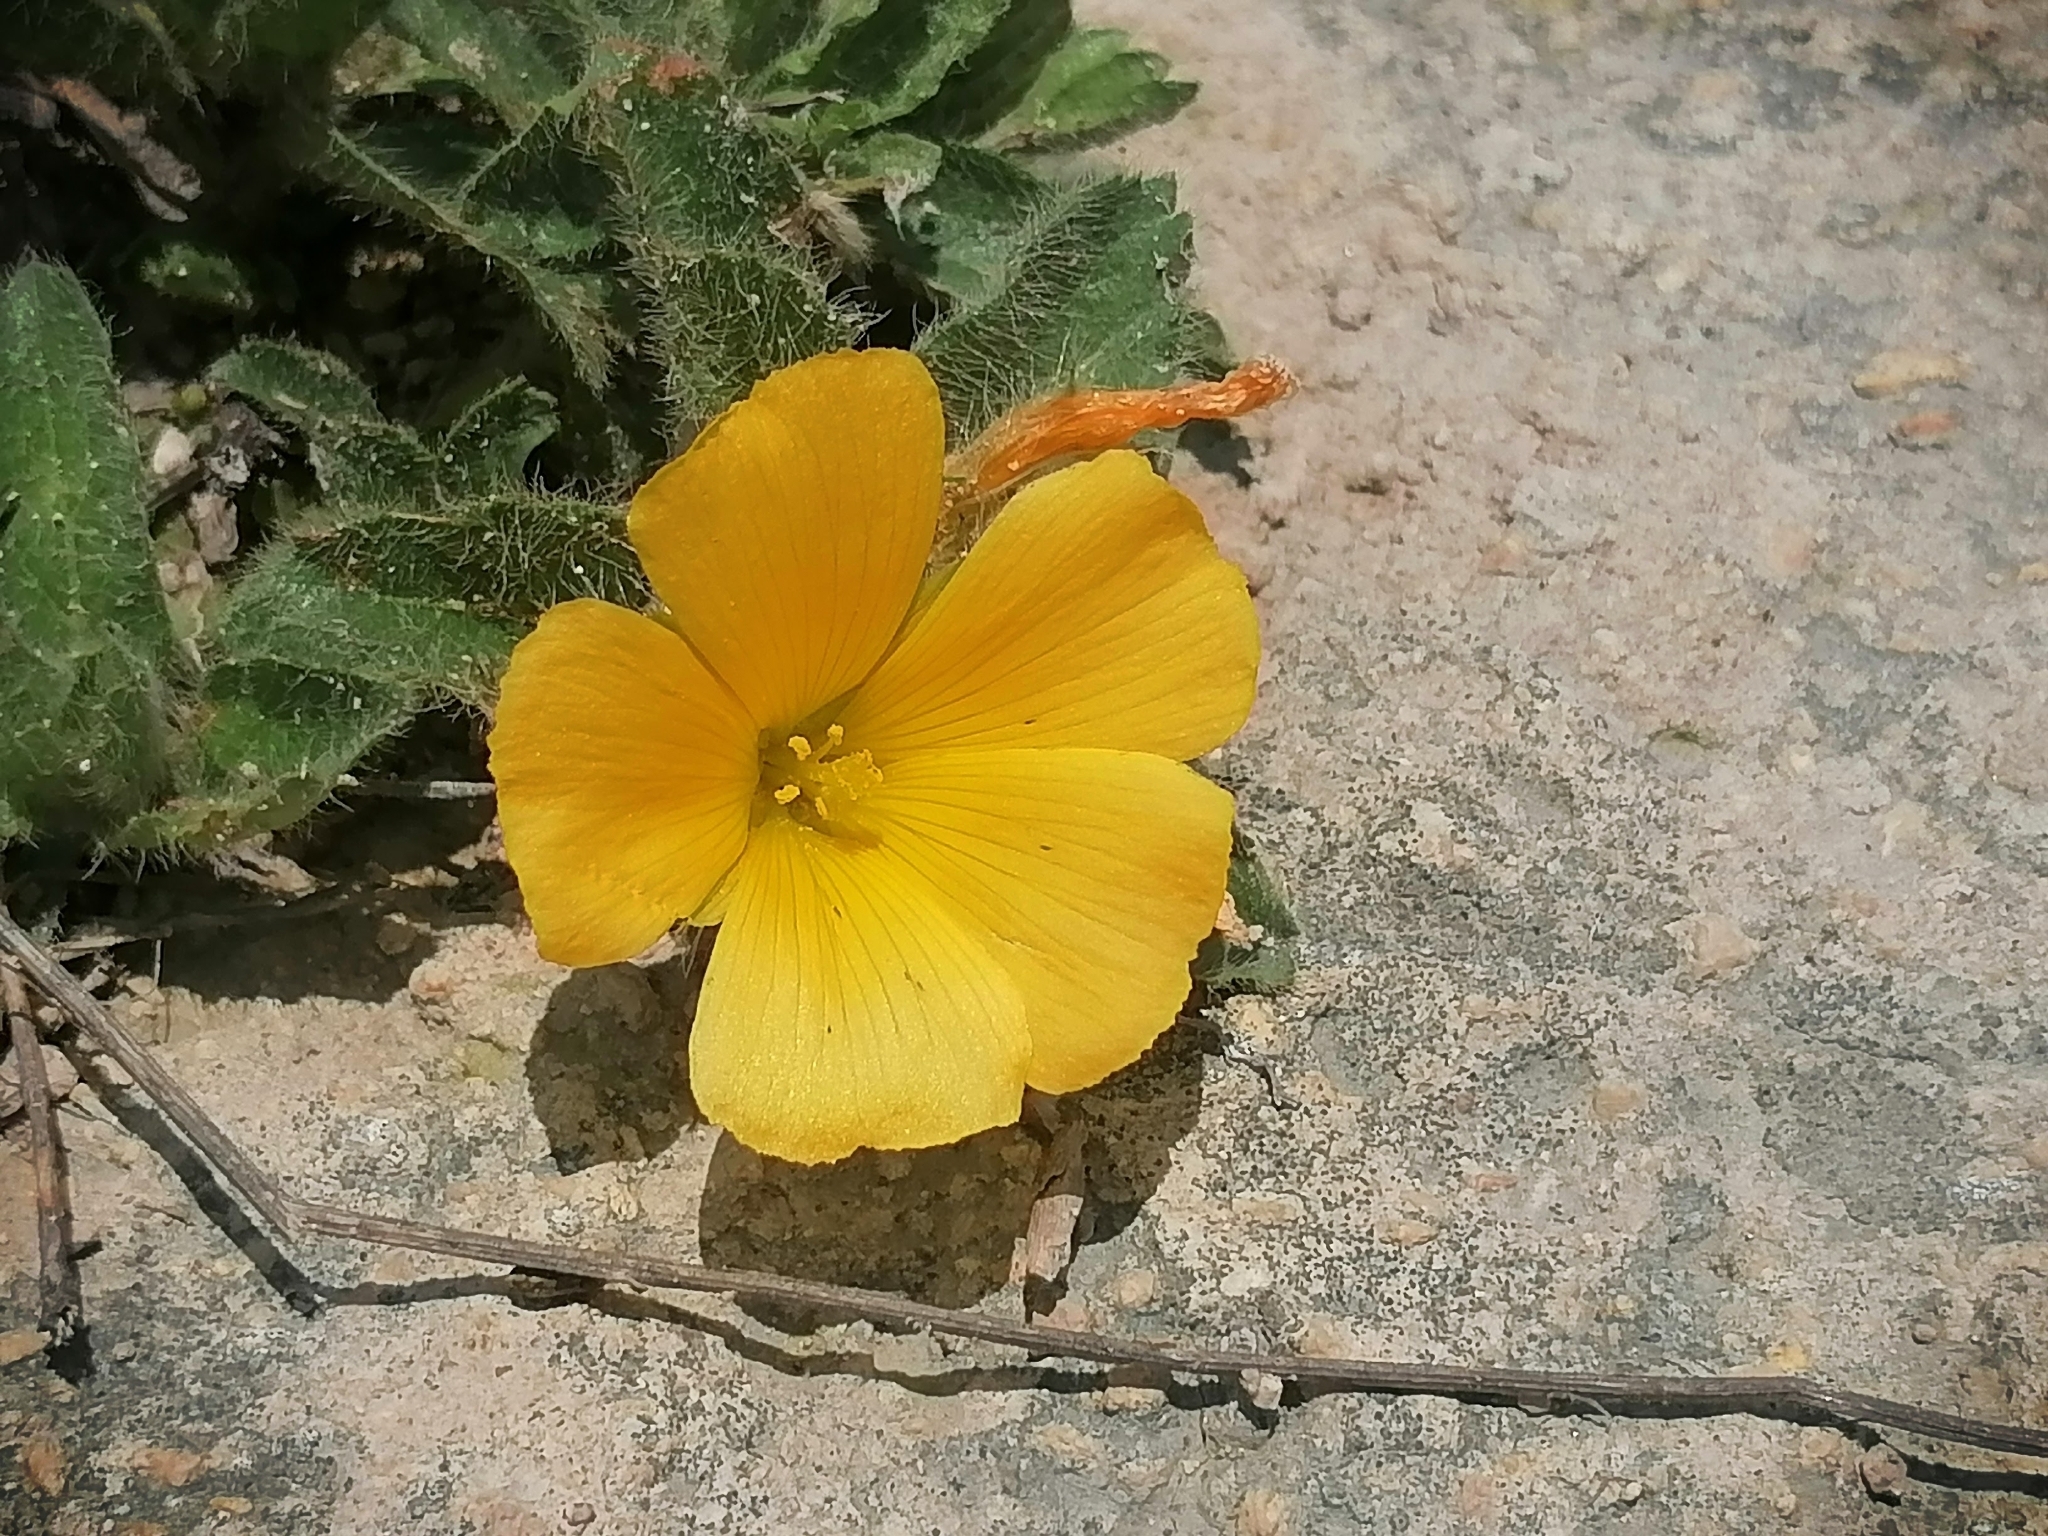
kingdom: Plantae
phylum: Tracheophyta
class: Magnoliopsida
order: Malpighiales
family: Turneraceae
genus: Turnera
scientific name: Turnera callosa
